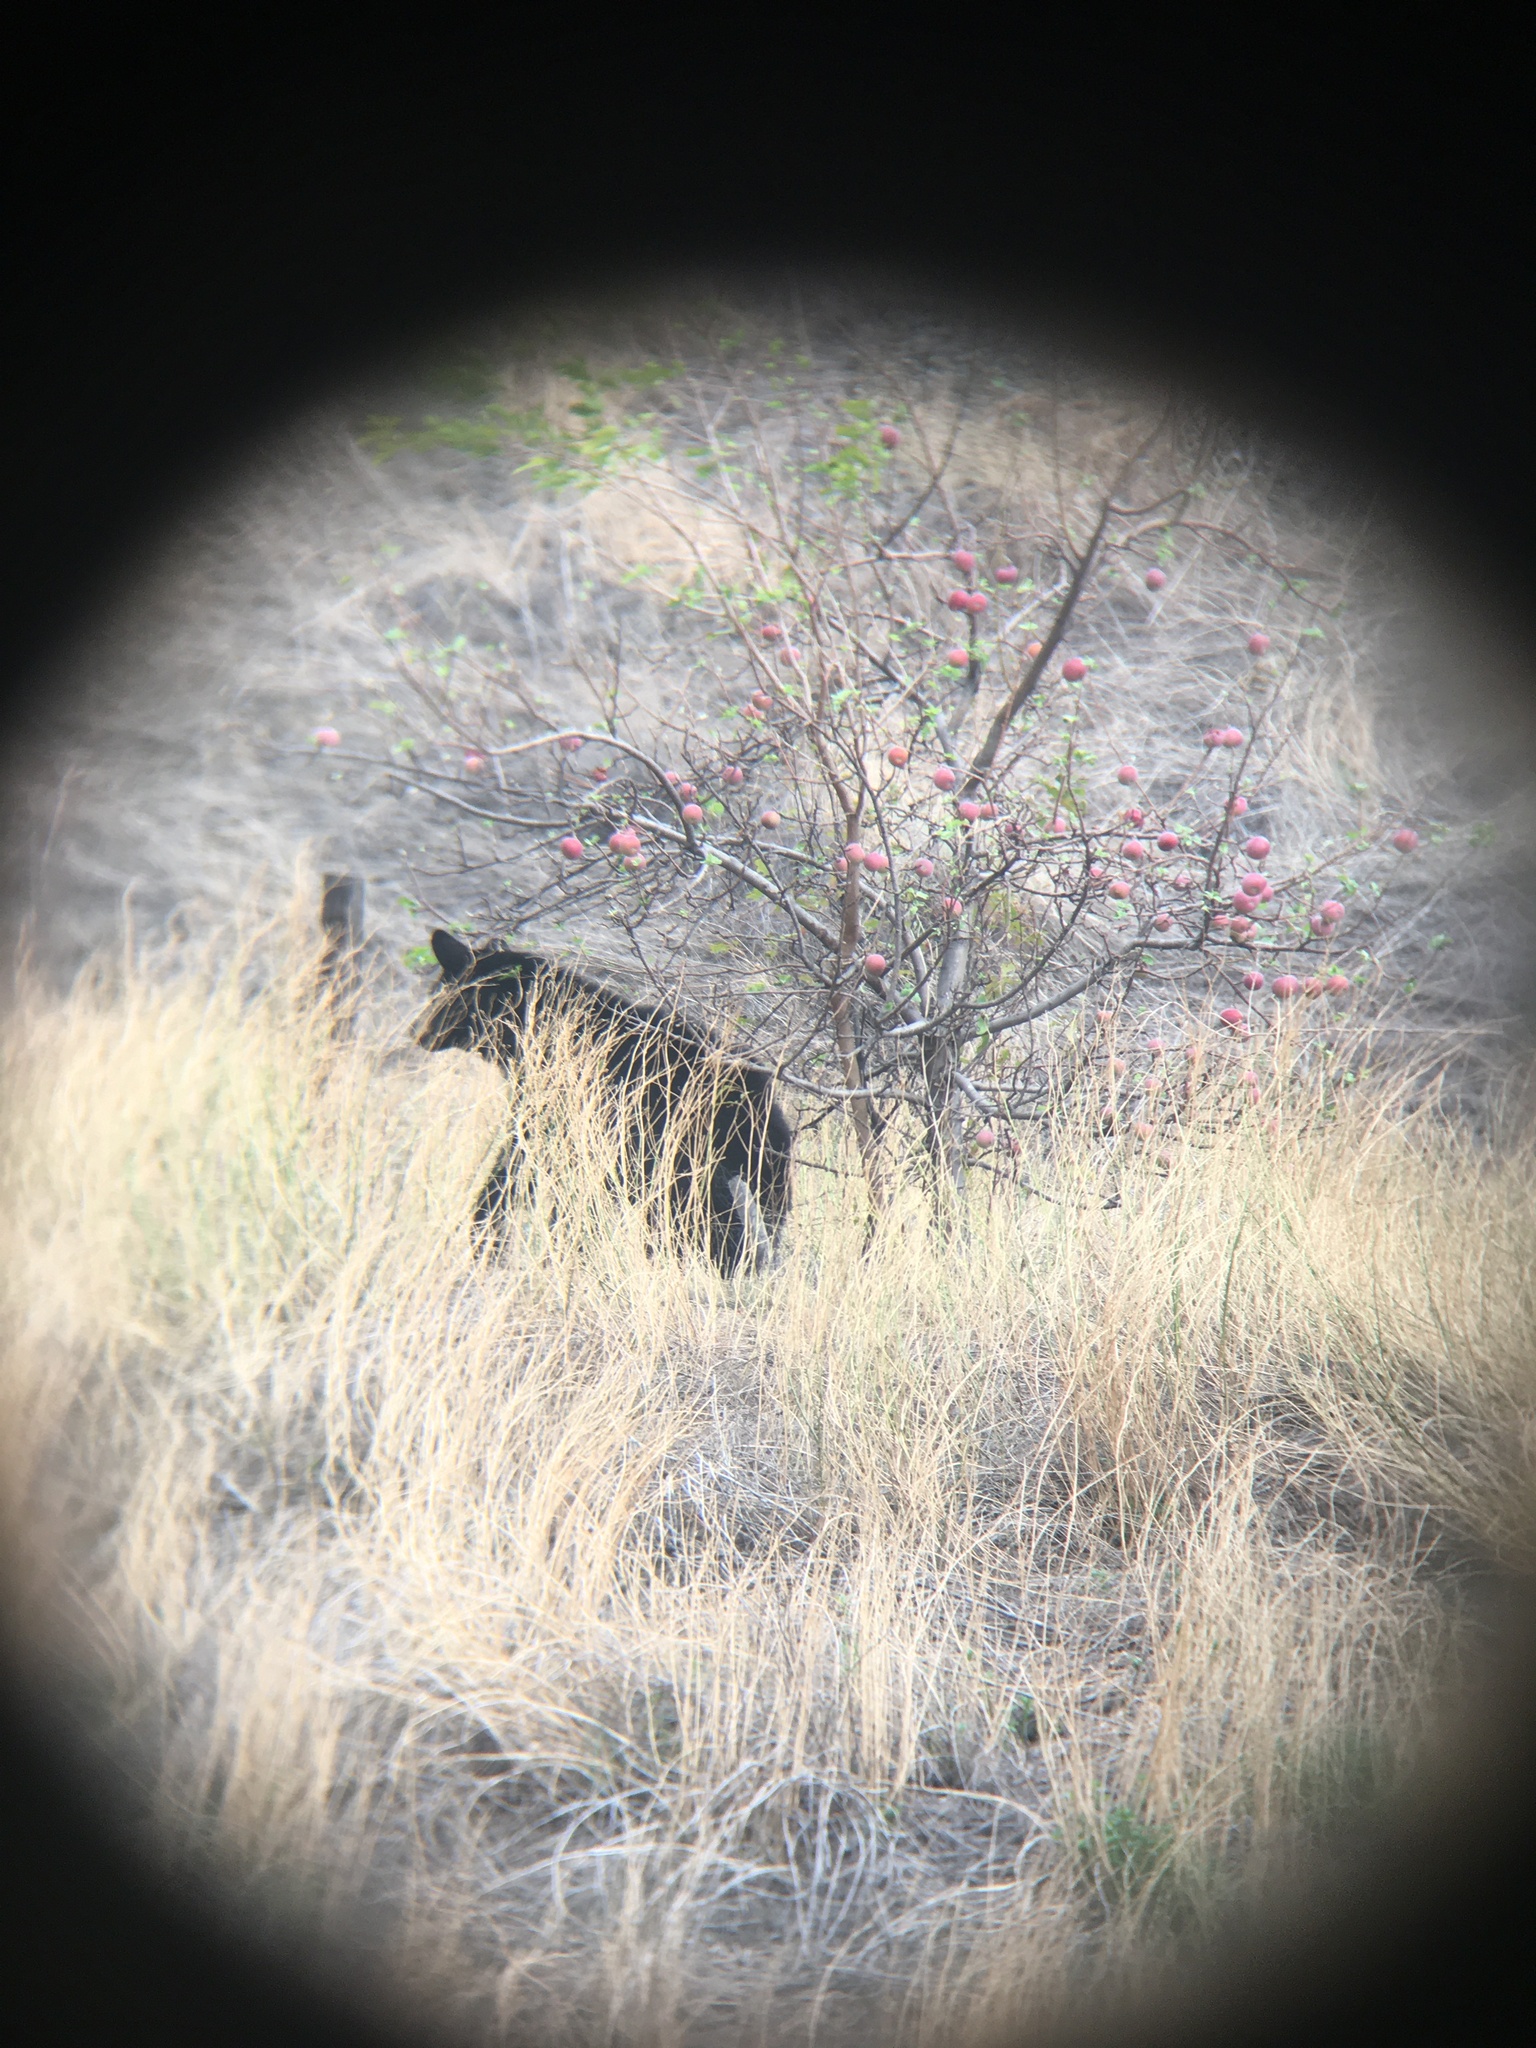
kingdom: Animalia
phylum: Chordata
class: Mammalia
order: Carnivora
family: Ursidae
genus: Ursus
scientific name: Ursus americanus
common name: American black bear
